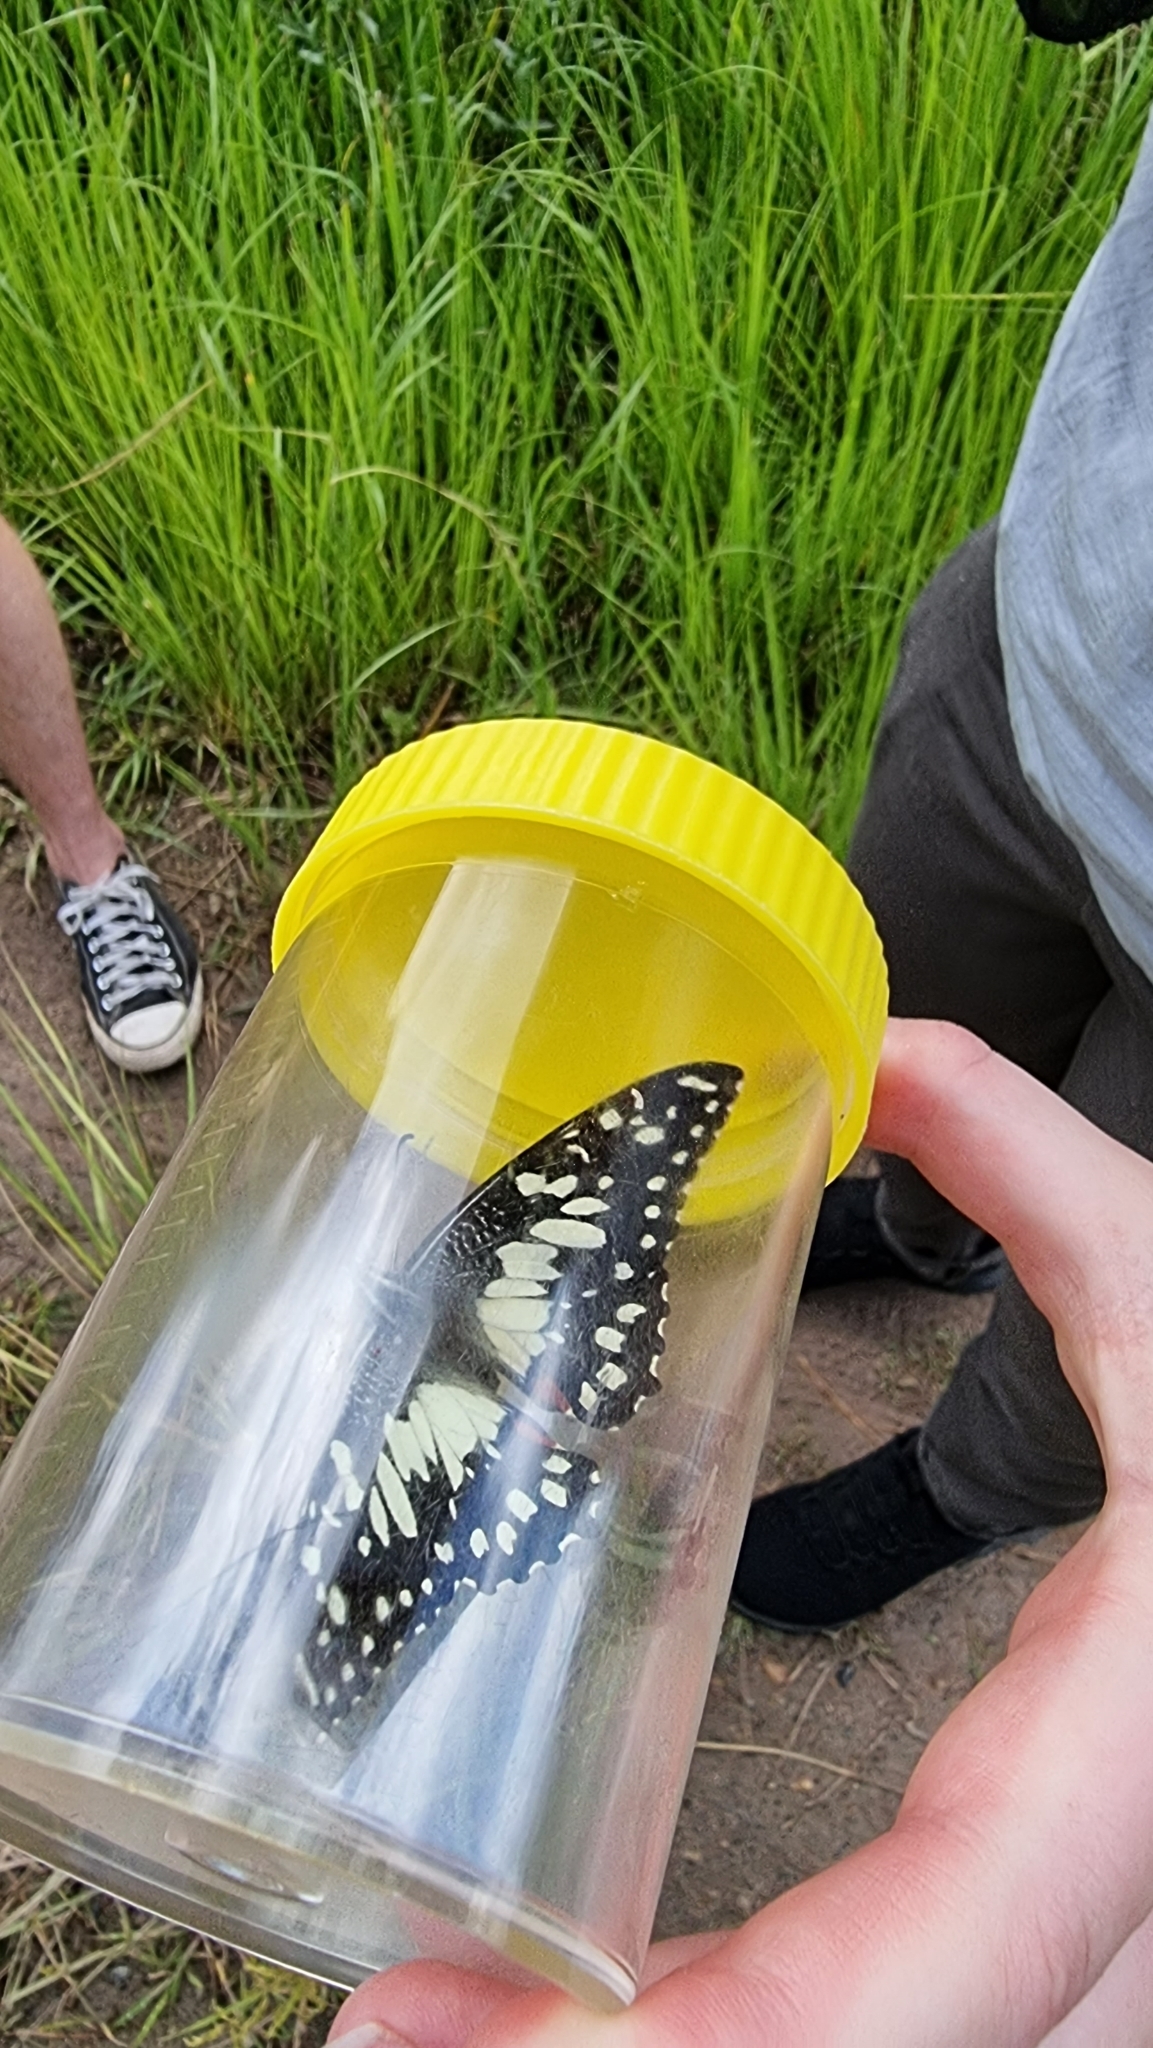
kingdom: Animalia
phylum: Arthropoda
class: Insecta
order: Lepidoptera
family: Papilionidae
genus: Papilio
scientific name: Papilio demoleus
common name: Lime butterfly
